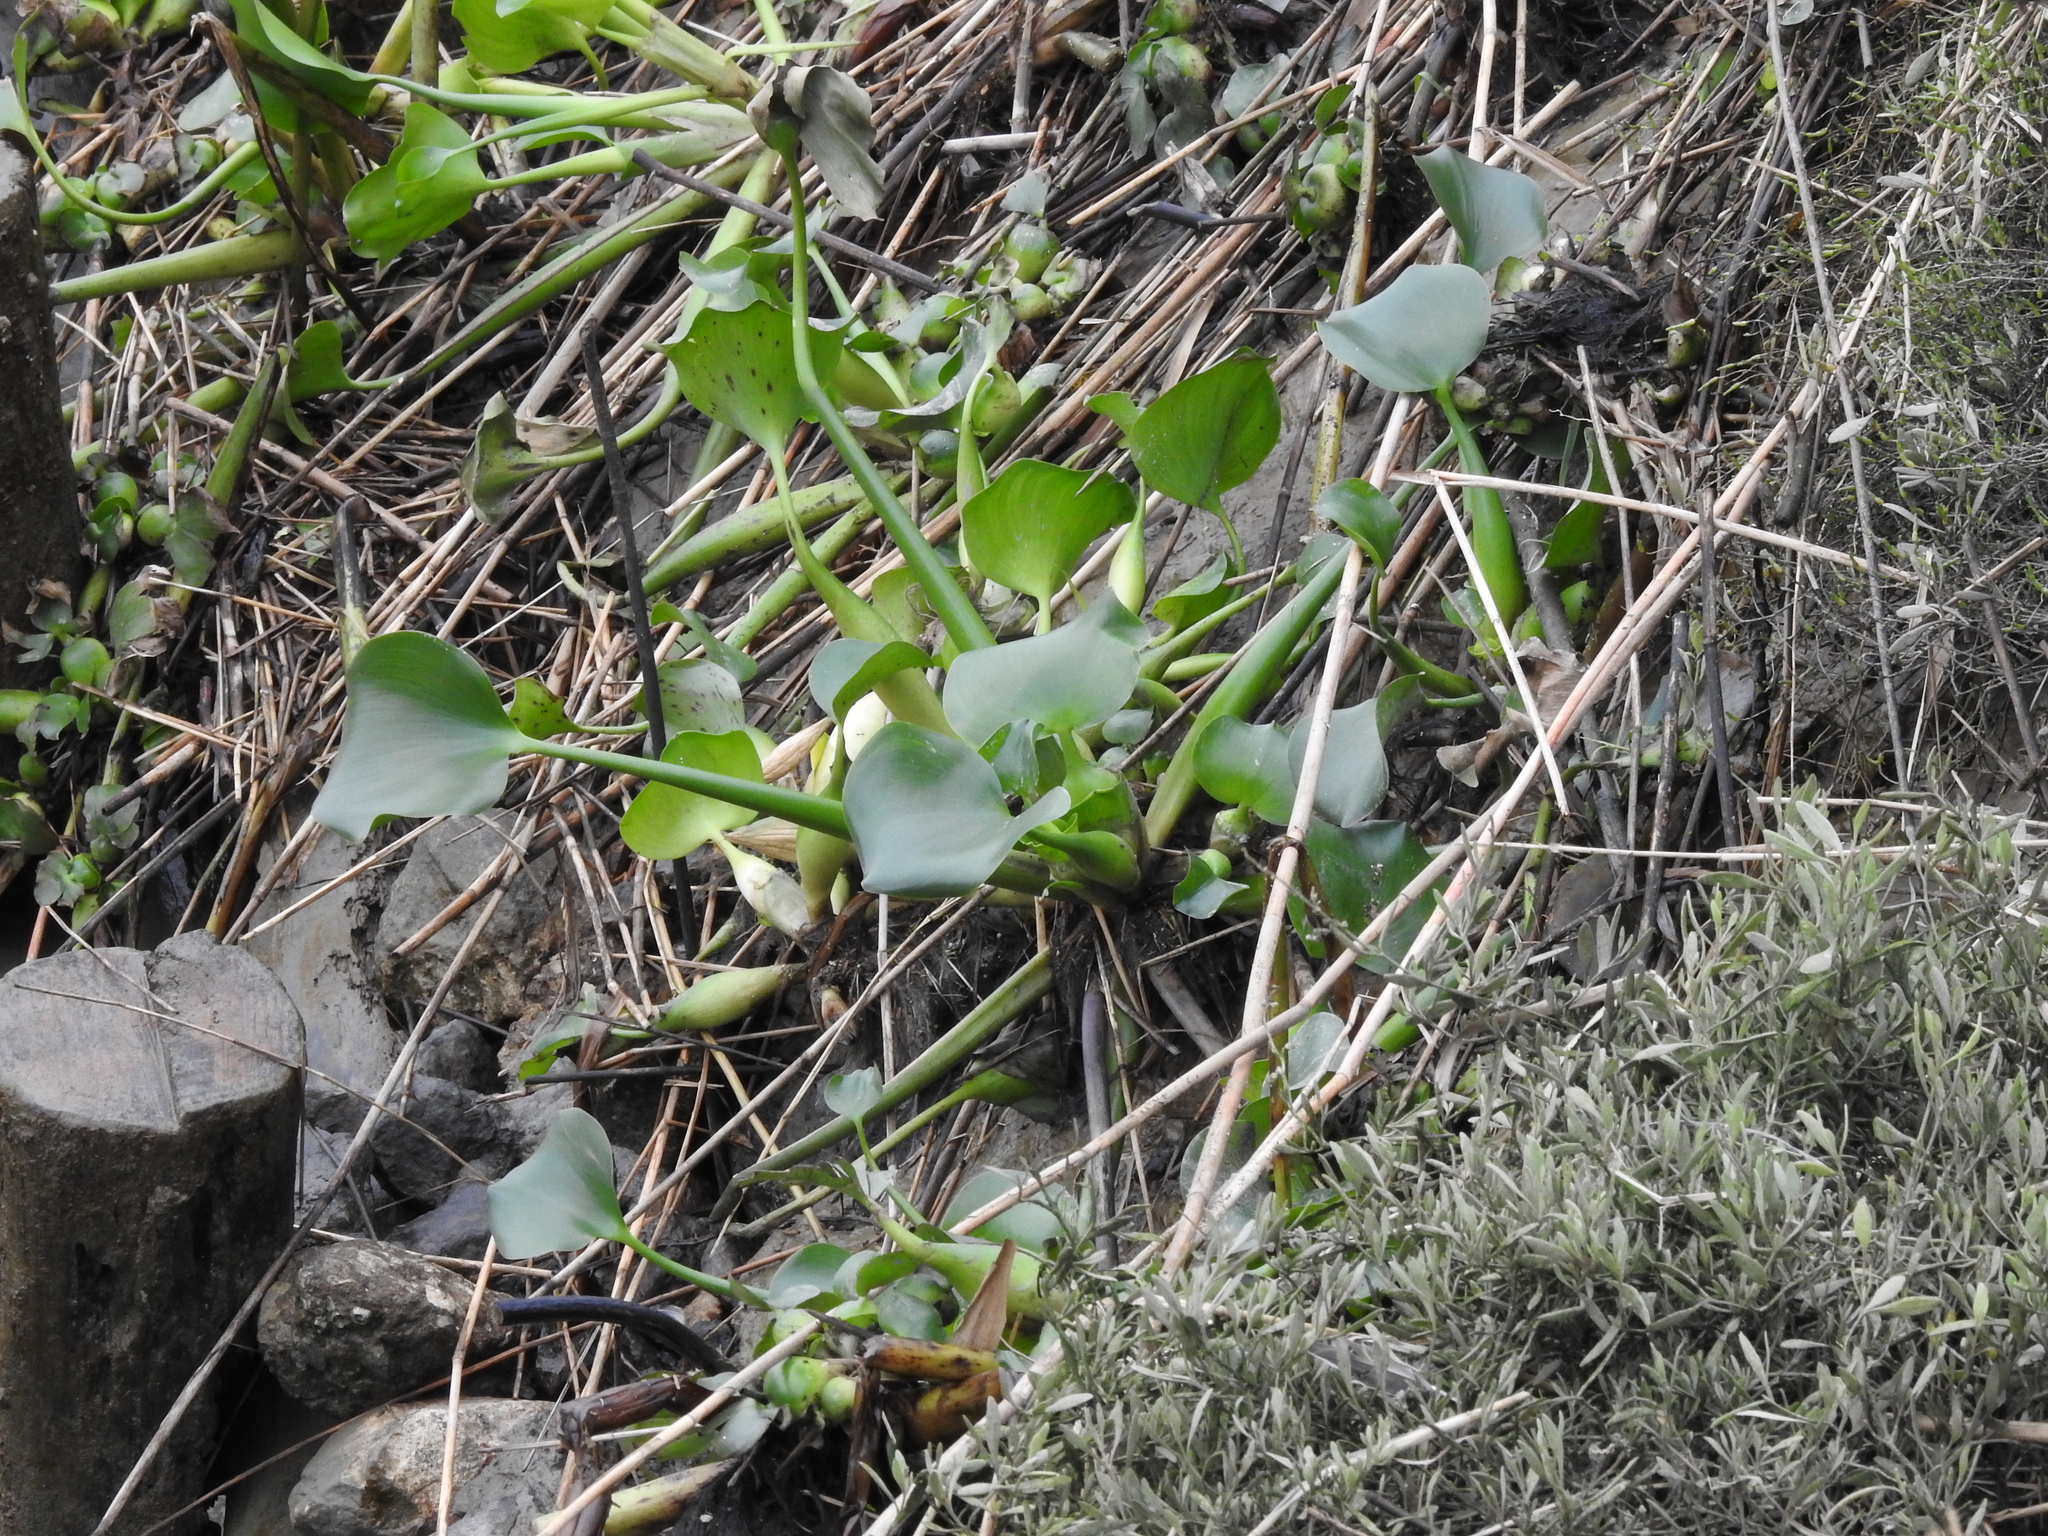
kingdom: Plantae
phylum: Tracheophyta
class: Liliopsida
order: Commelinales
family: Pontederiaceae
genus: Pontederia
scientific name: Pontederia crassipes
